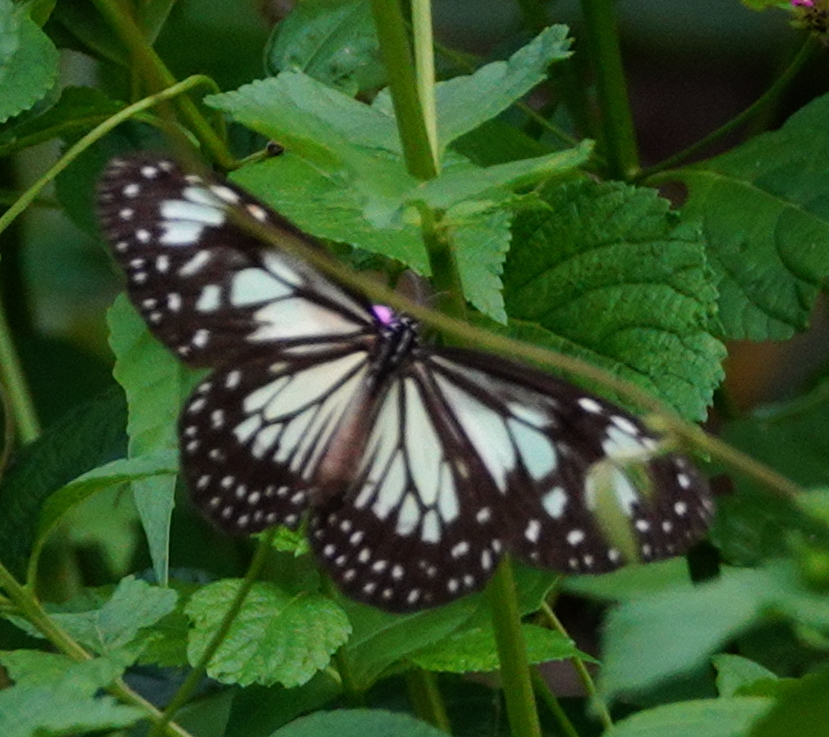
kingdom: Animalia
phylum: Arthropoda
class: Insecta
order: Lepidoptera
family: Nymphalidae
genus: Parantica
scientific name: Parantica cleona
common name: Yellow tiger
